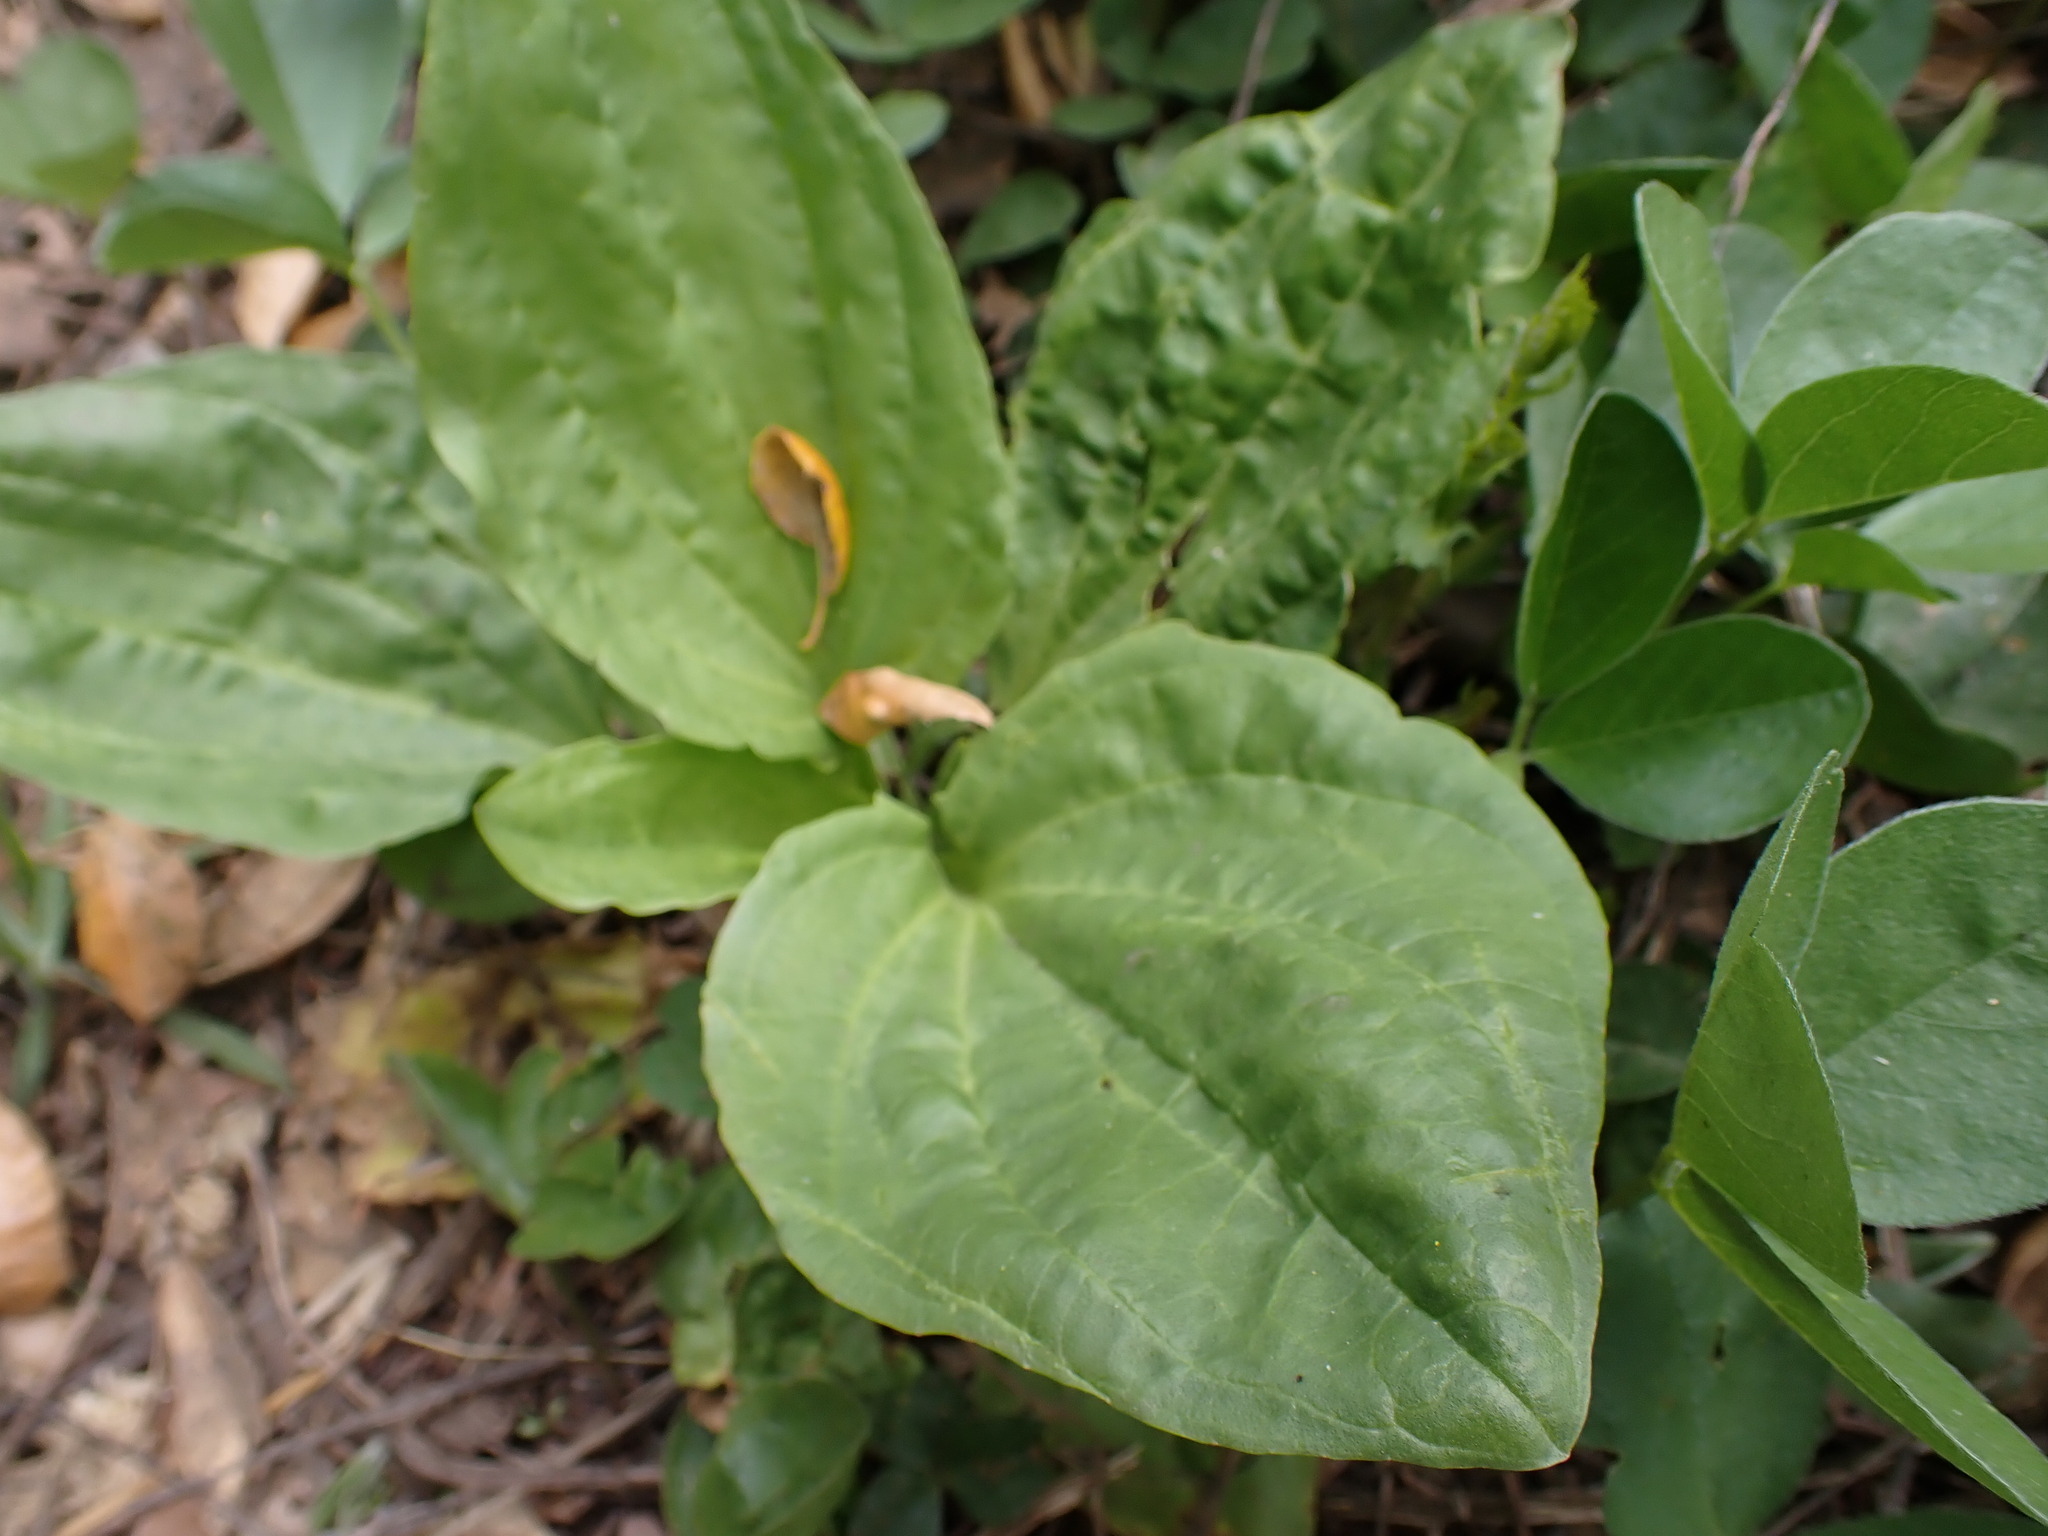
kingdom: Plantae
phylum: Tracheophyta
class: Magnoliopsida
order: Lamiales
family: Plantaginaceae
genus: Plantago
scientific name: Plantago major
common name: Common plantain
